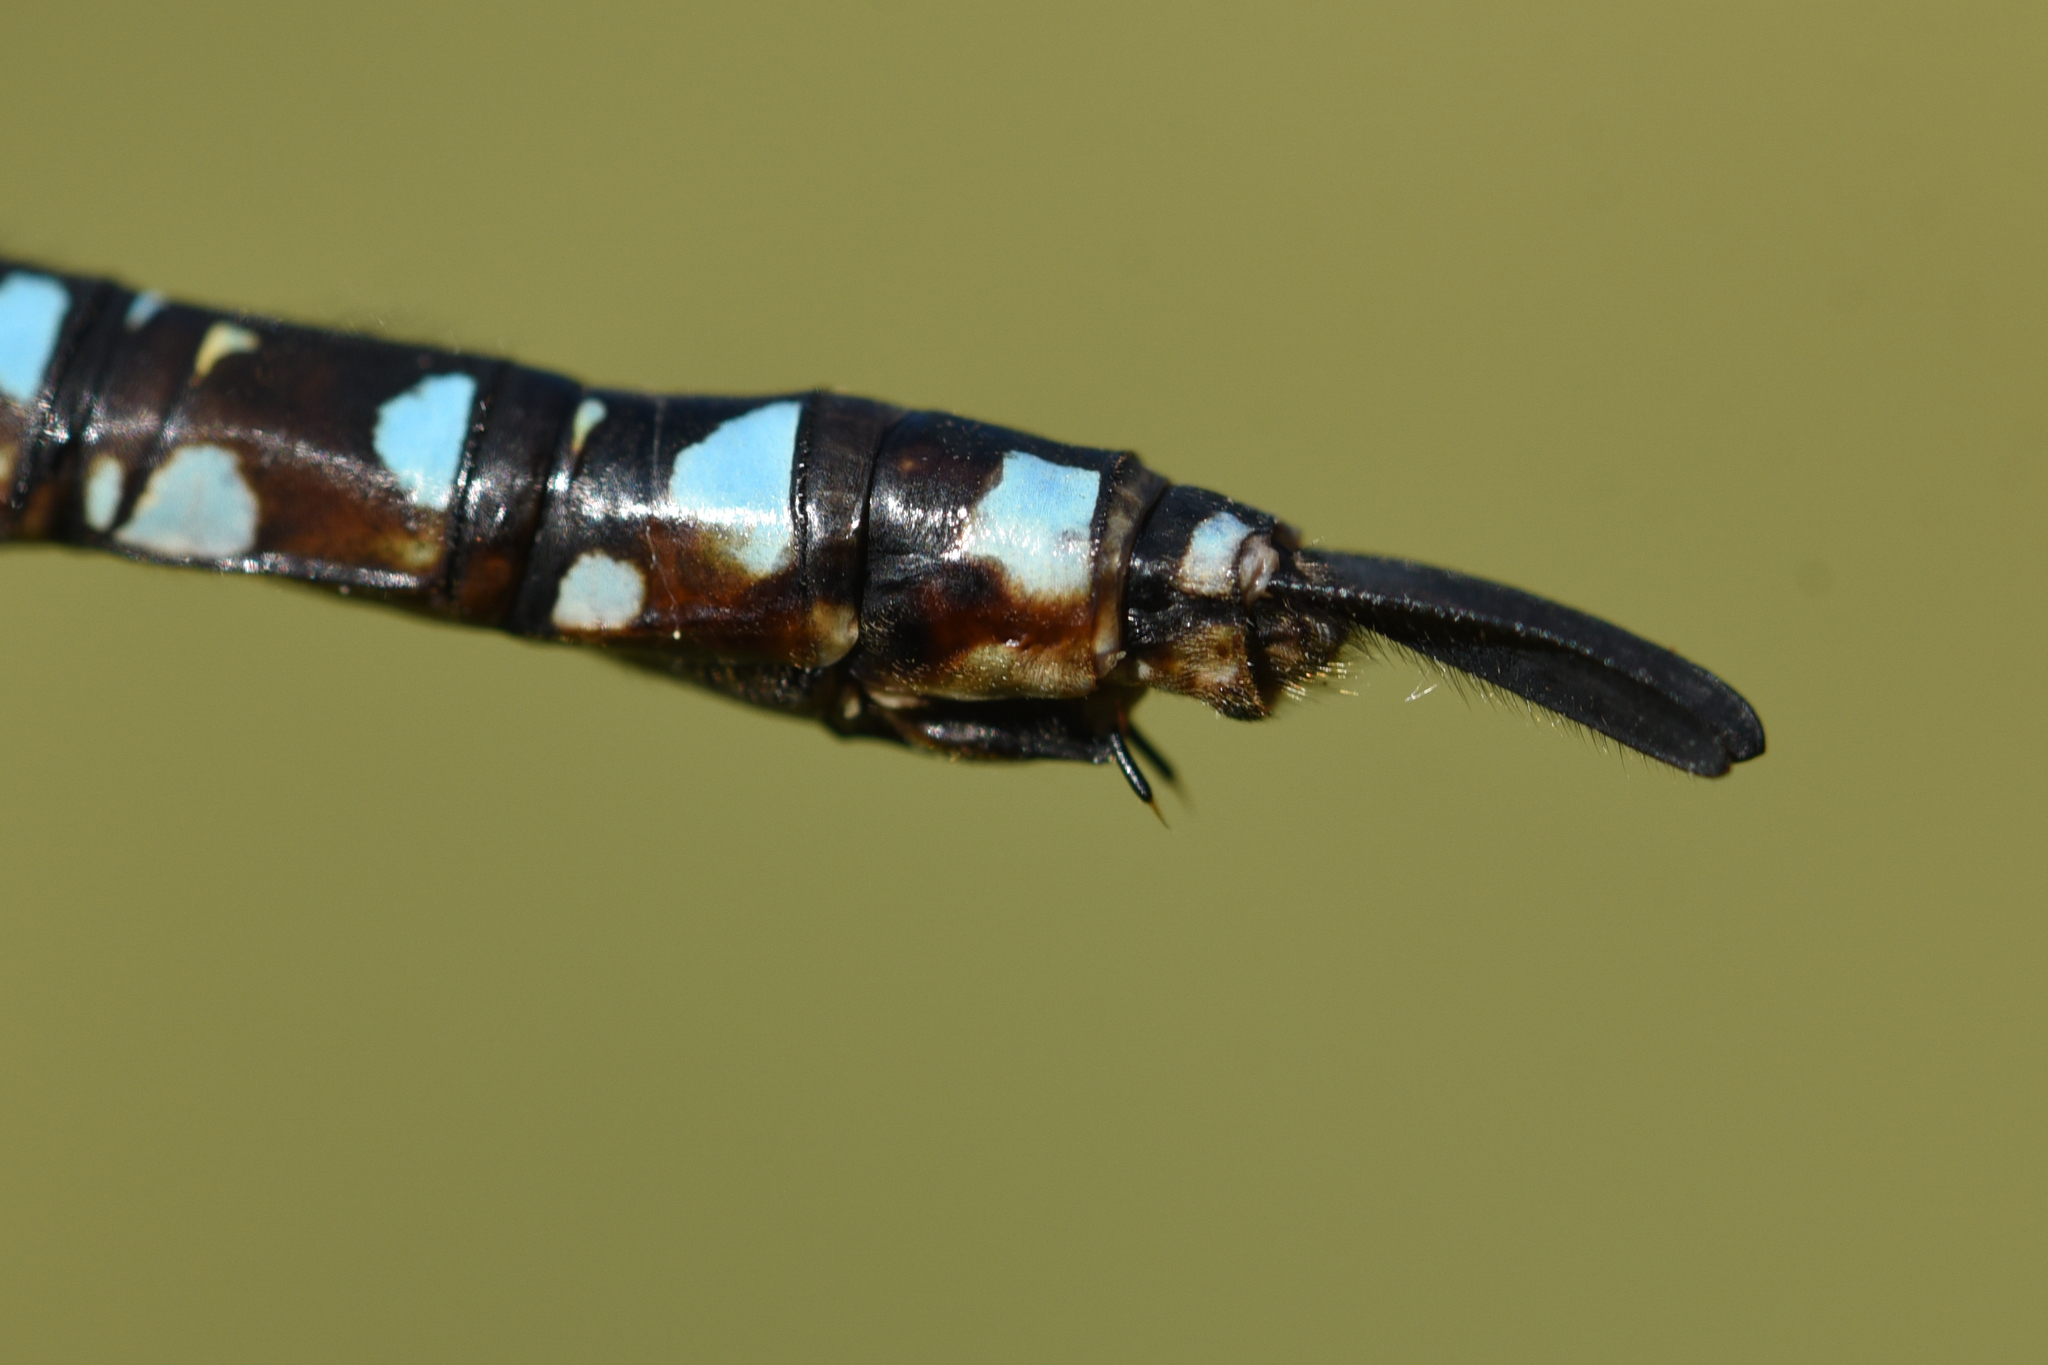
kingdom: Animalia
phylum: Arthropoda
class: Insecta
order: Odonata
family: Aeshnidae
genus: Aeshna
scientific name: Aeshna palmata
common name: Paddle-tailed darner
